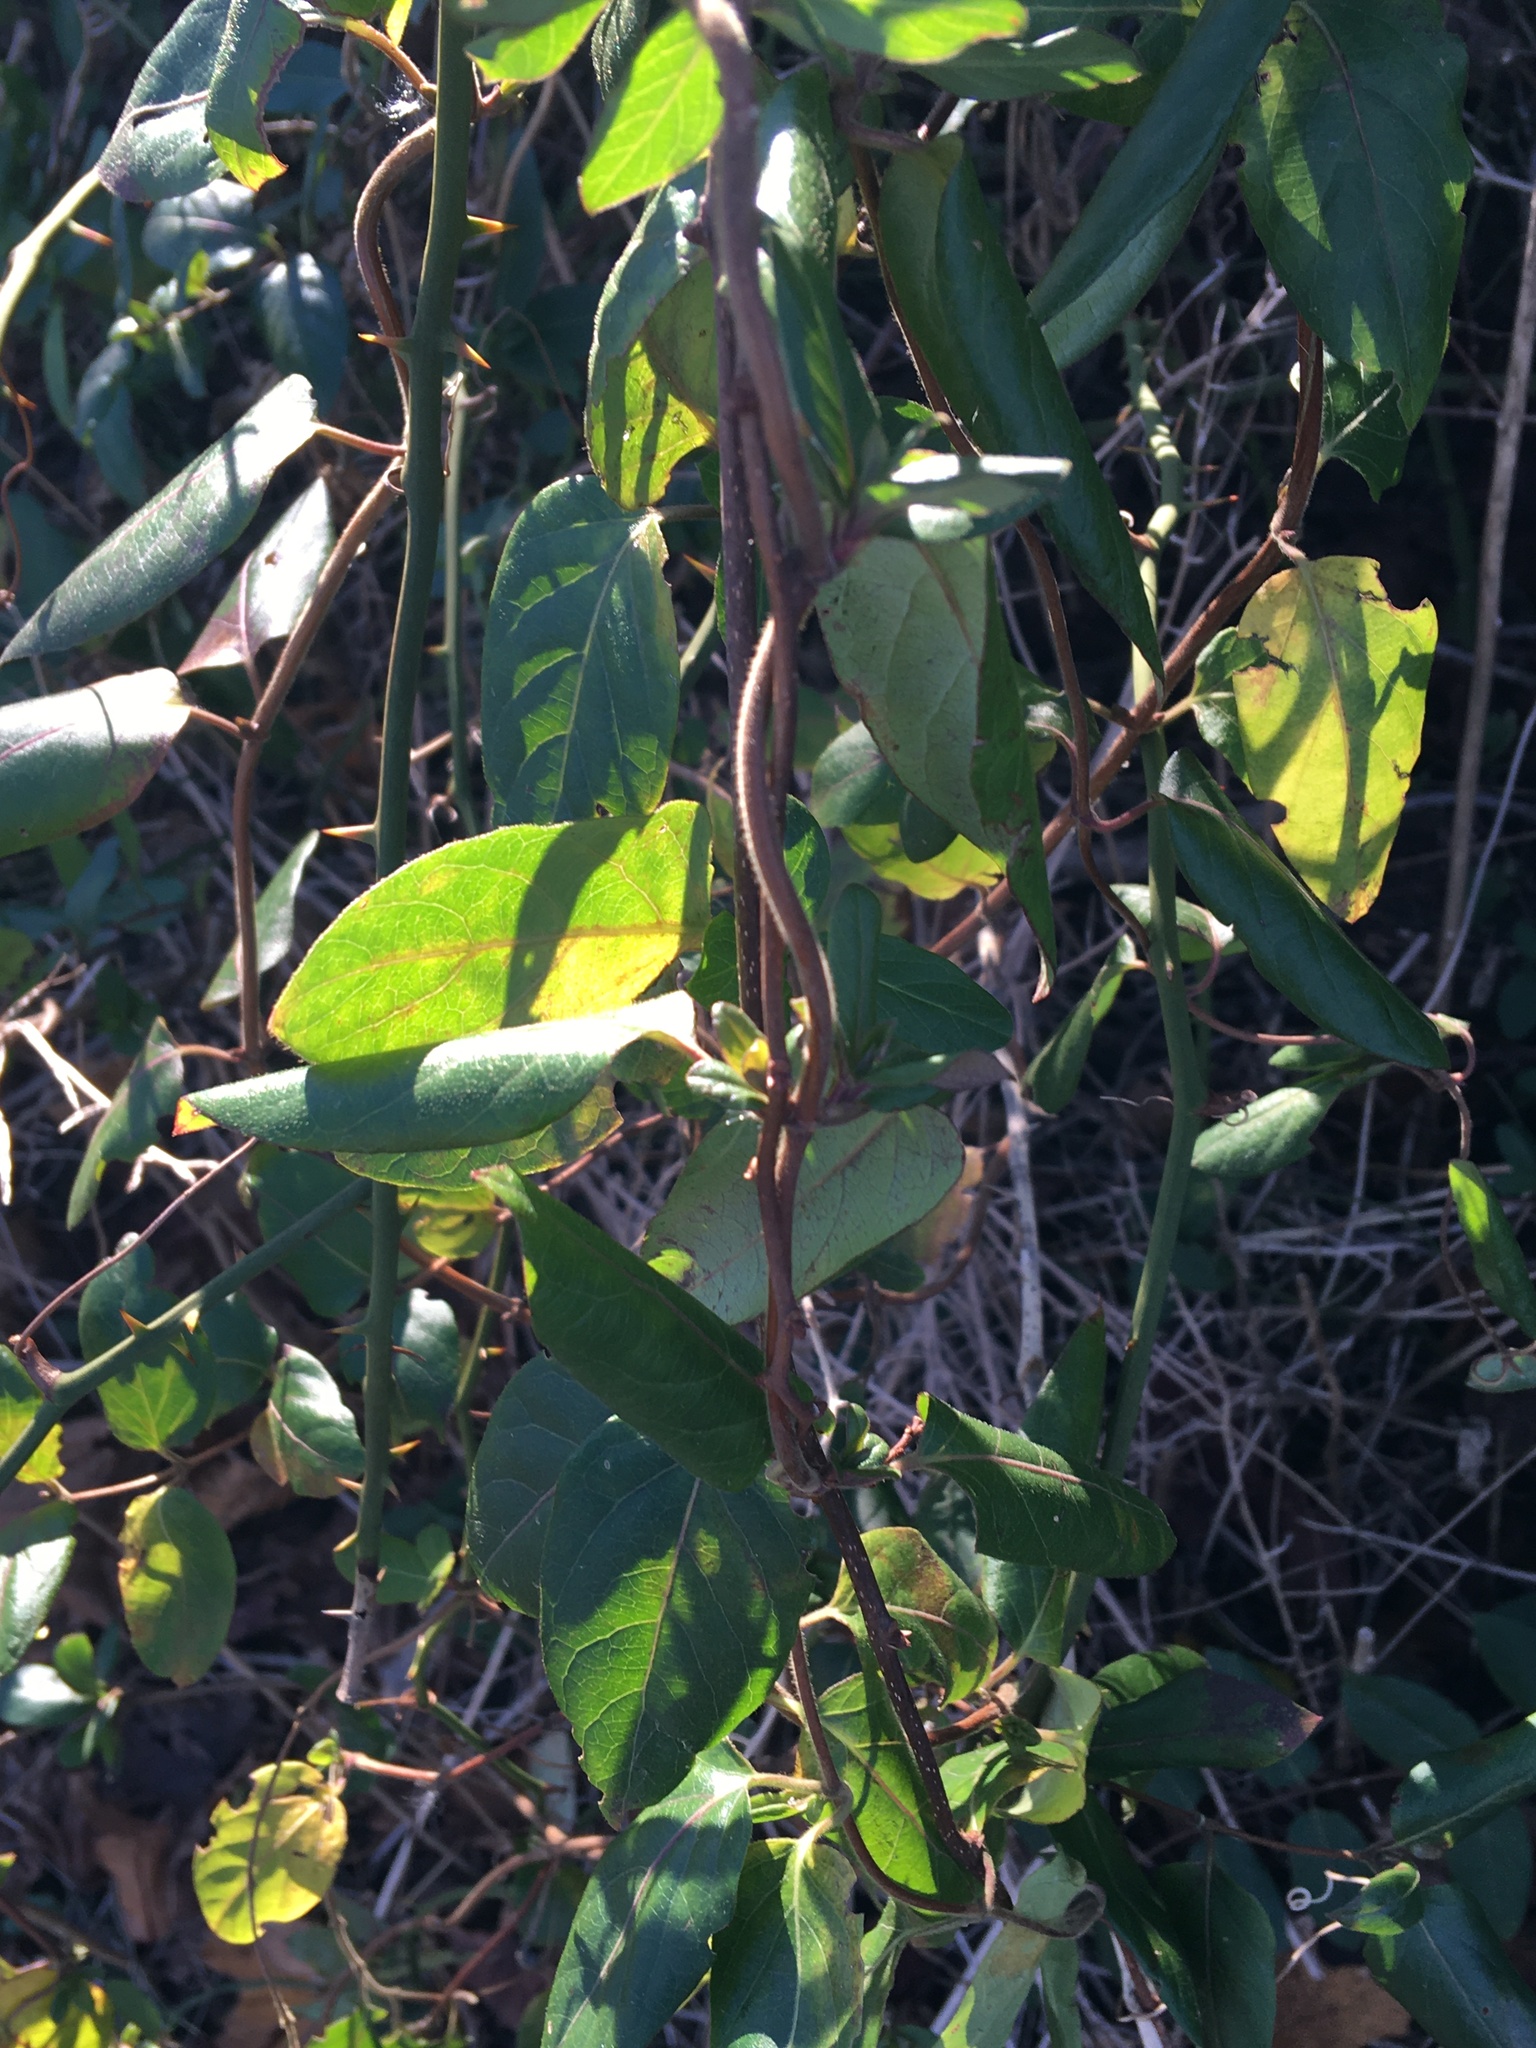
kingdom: Plantae
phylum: Tracheophyta
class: Magnoliopsida
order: Dipsacales
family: Caprifoliaceae
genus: Lonicera
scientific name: Lonicera japonica
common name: Japanese honeysuckle
